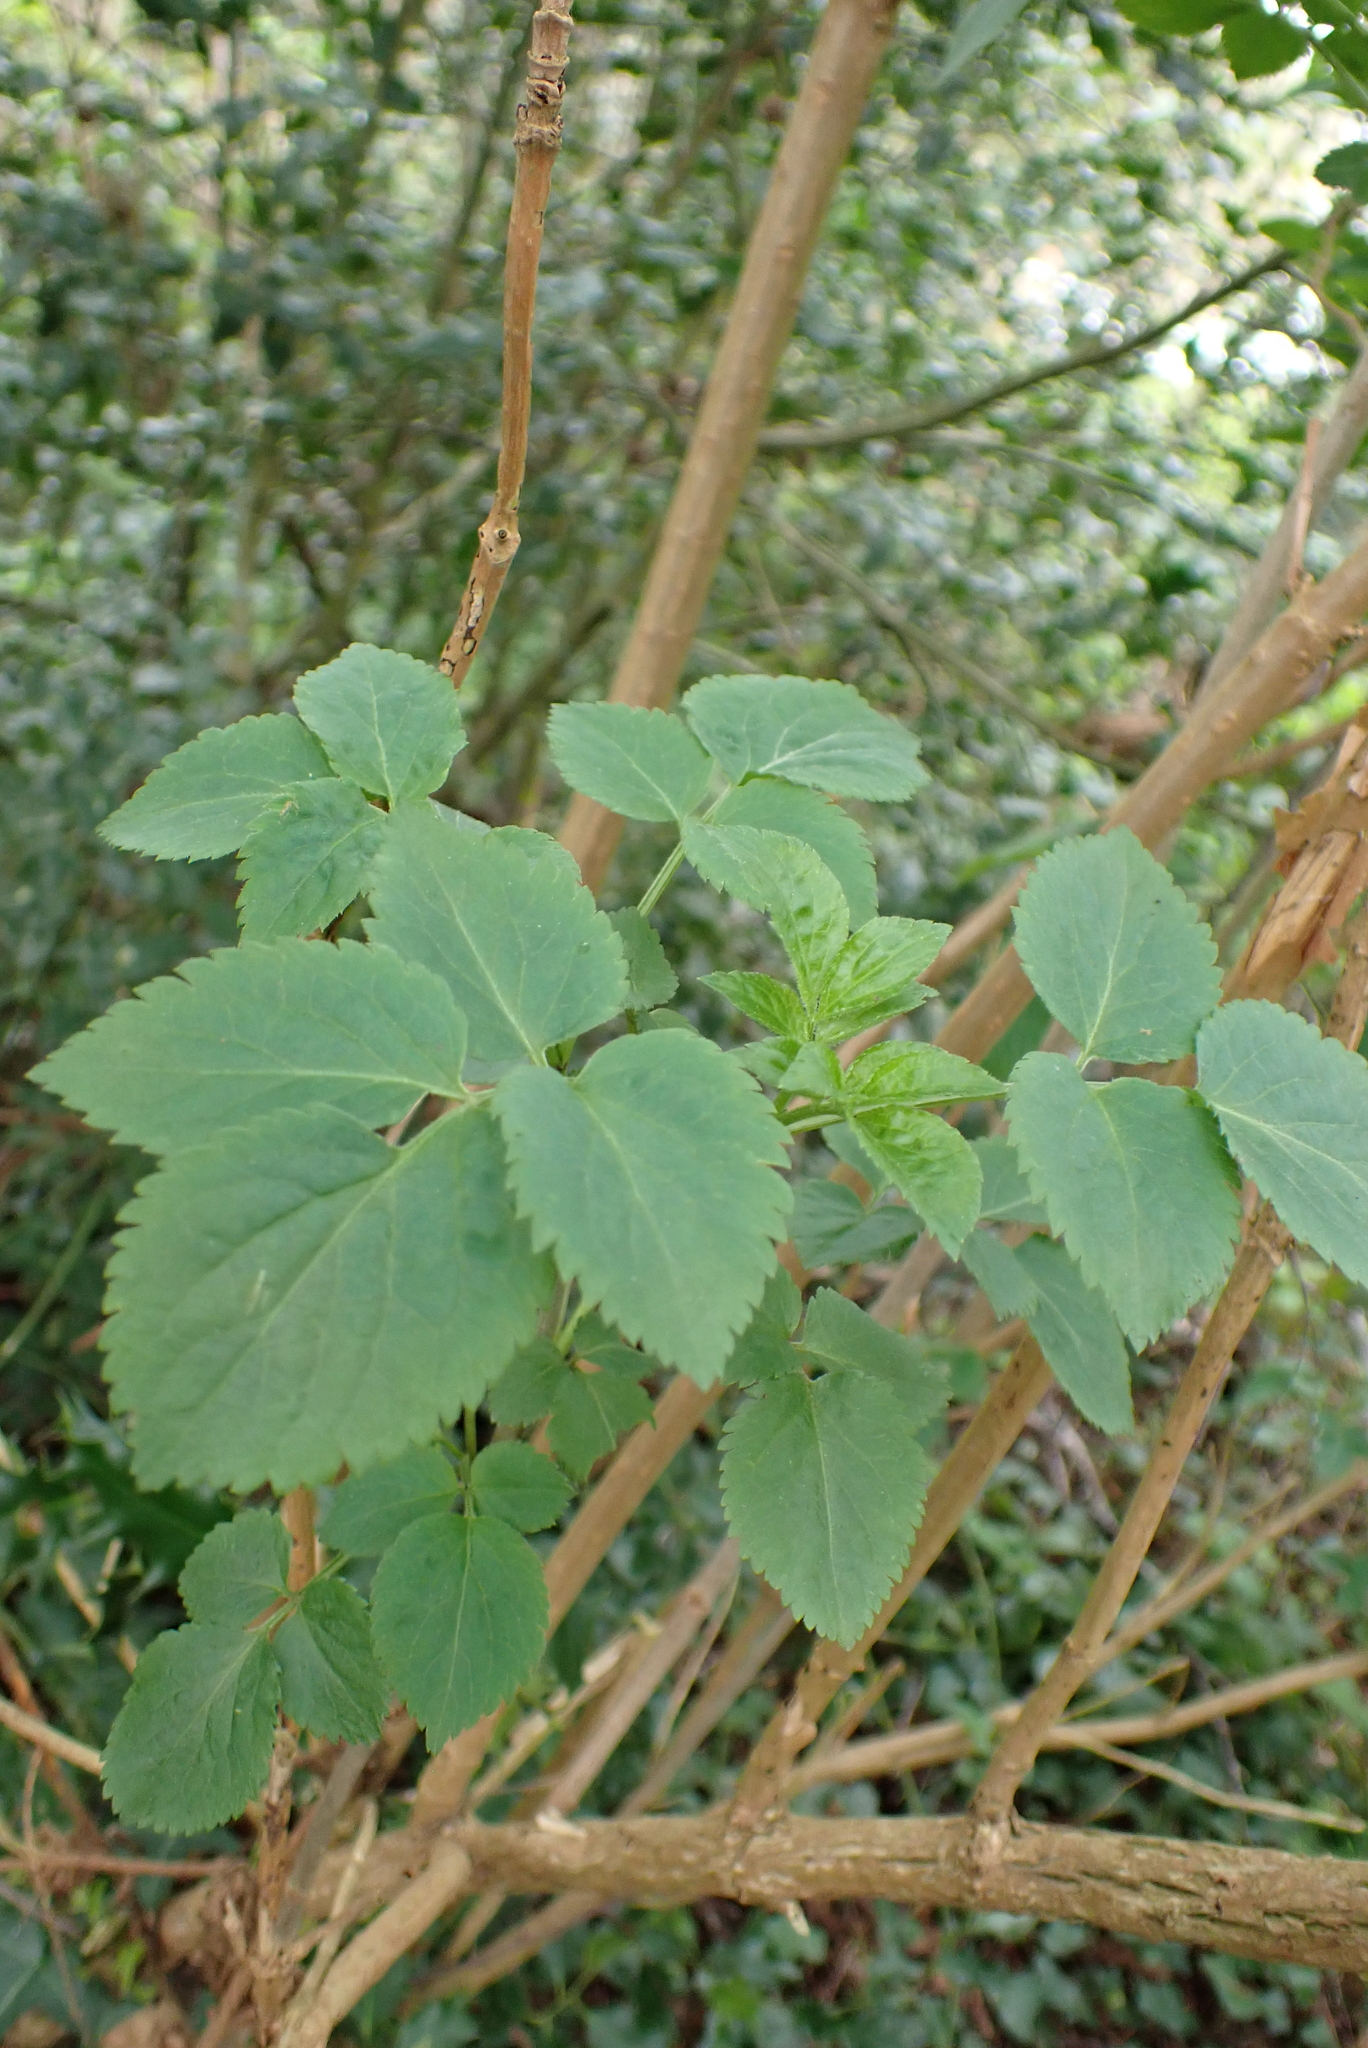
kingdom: Plantae
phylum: Tracheophyta
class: Magnoliopsida
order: Dipsacales
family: Viburnaceae
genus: Sambucus
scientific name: Sambucus nigra
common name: Elder
